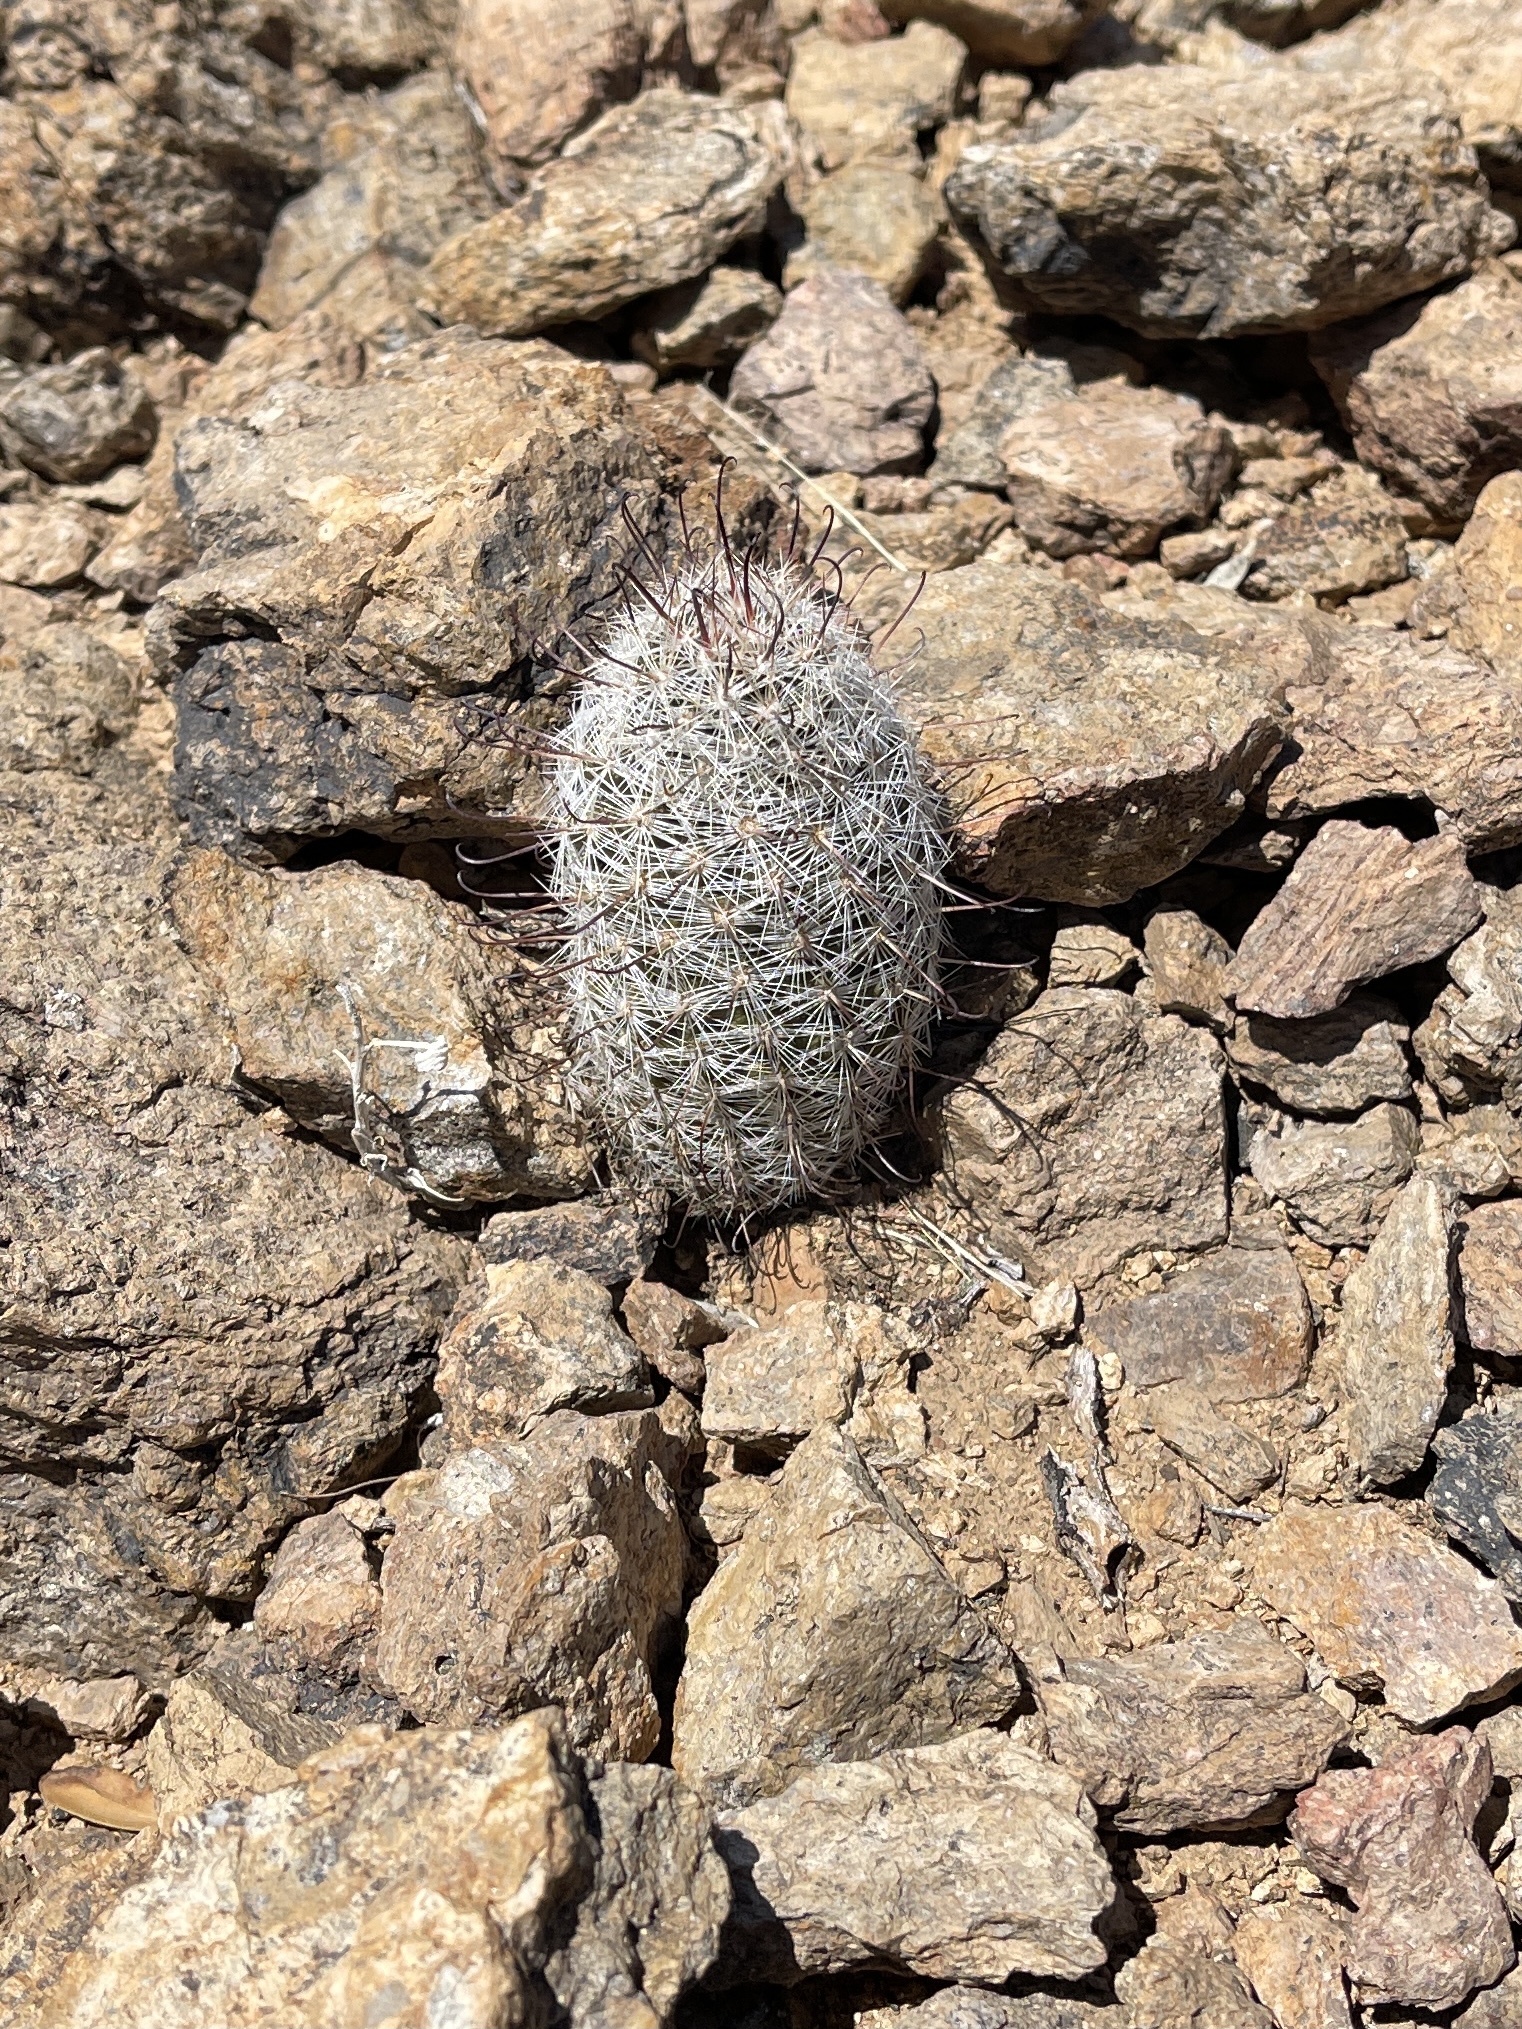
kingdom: Plantae
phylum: Tracheophyta
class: Magnoliopsida
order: Caryophyllales
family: Cactaceae
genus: Cochemiea
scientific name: Cochemiea grahamii
